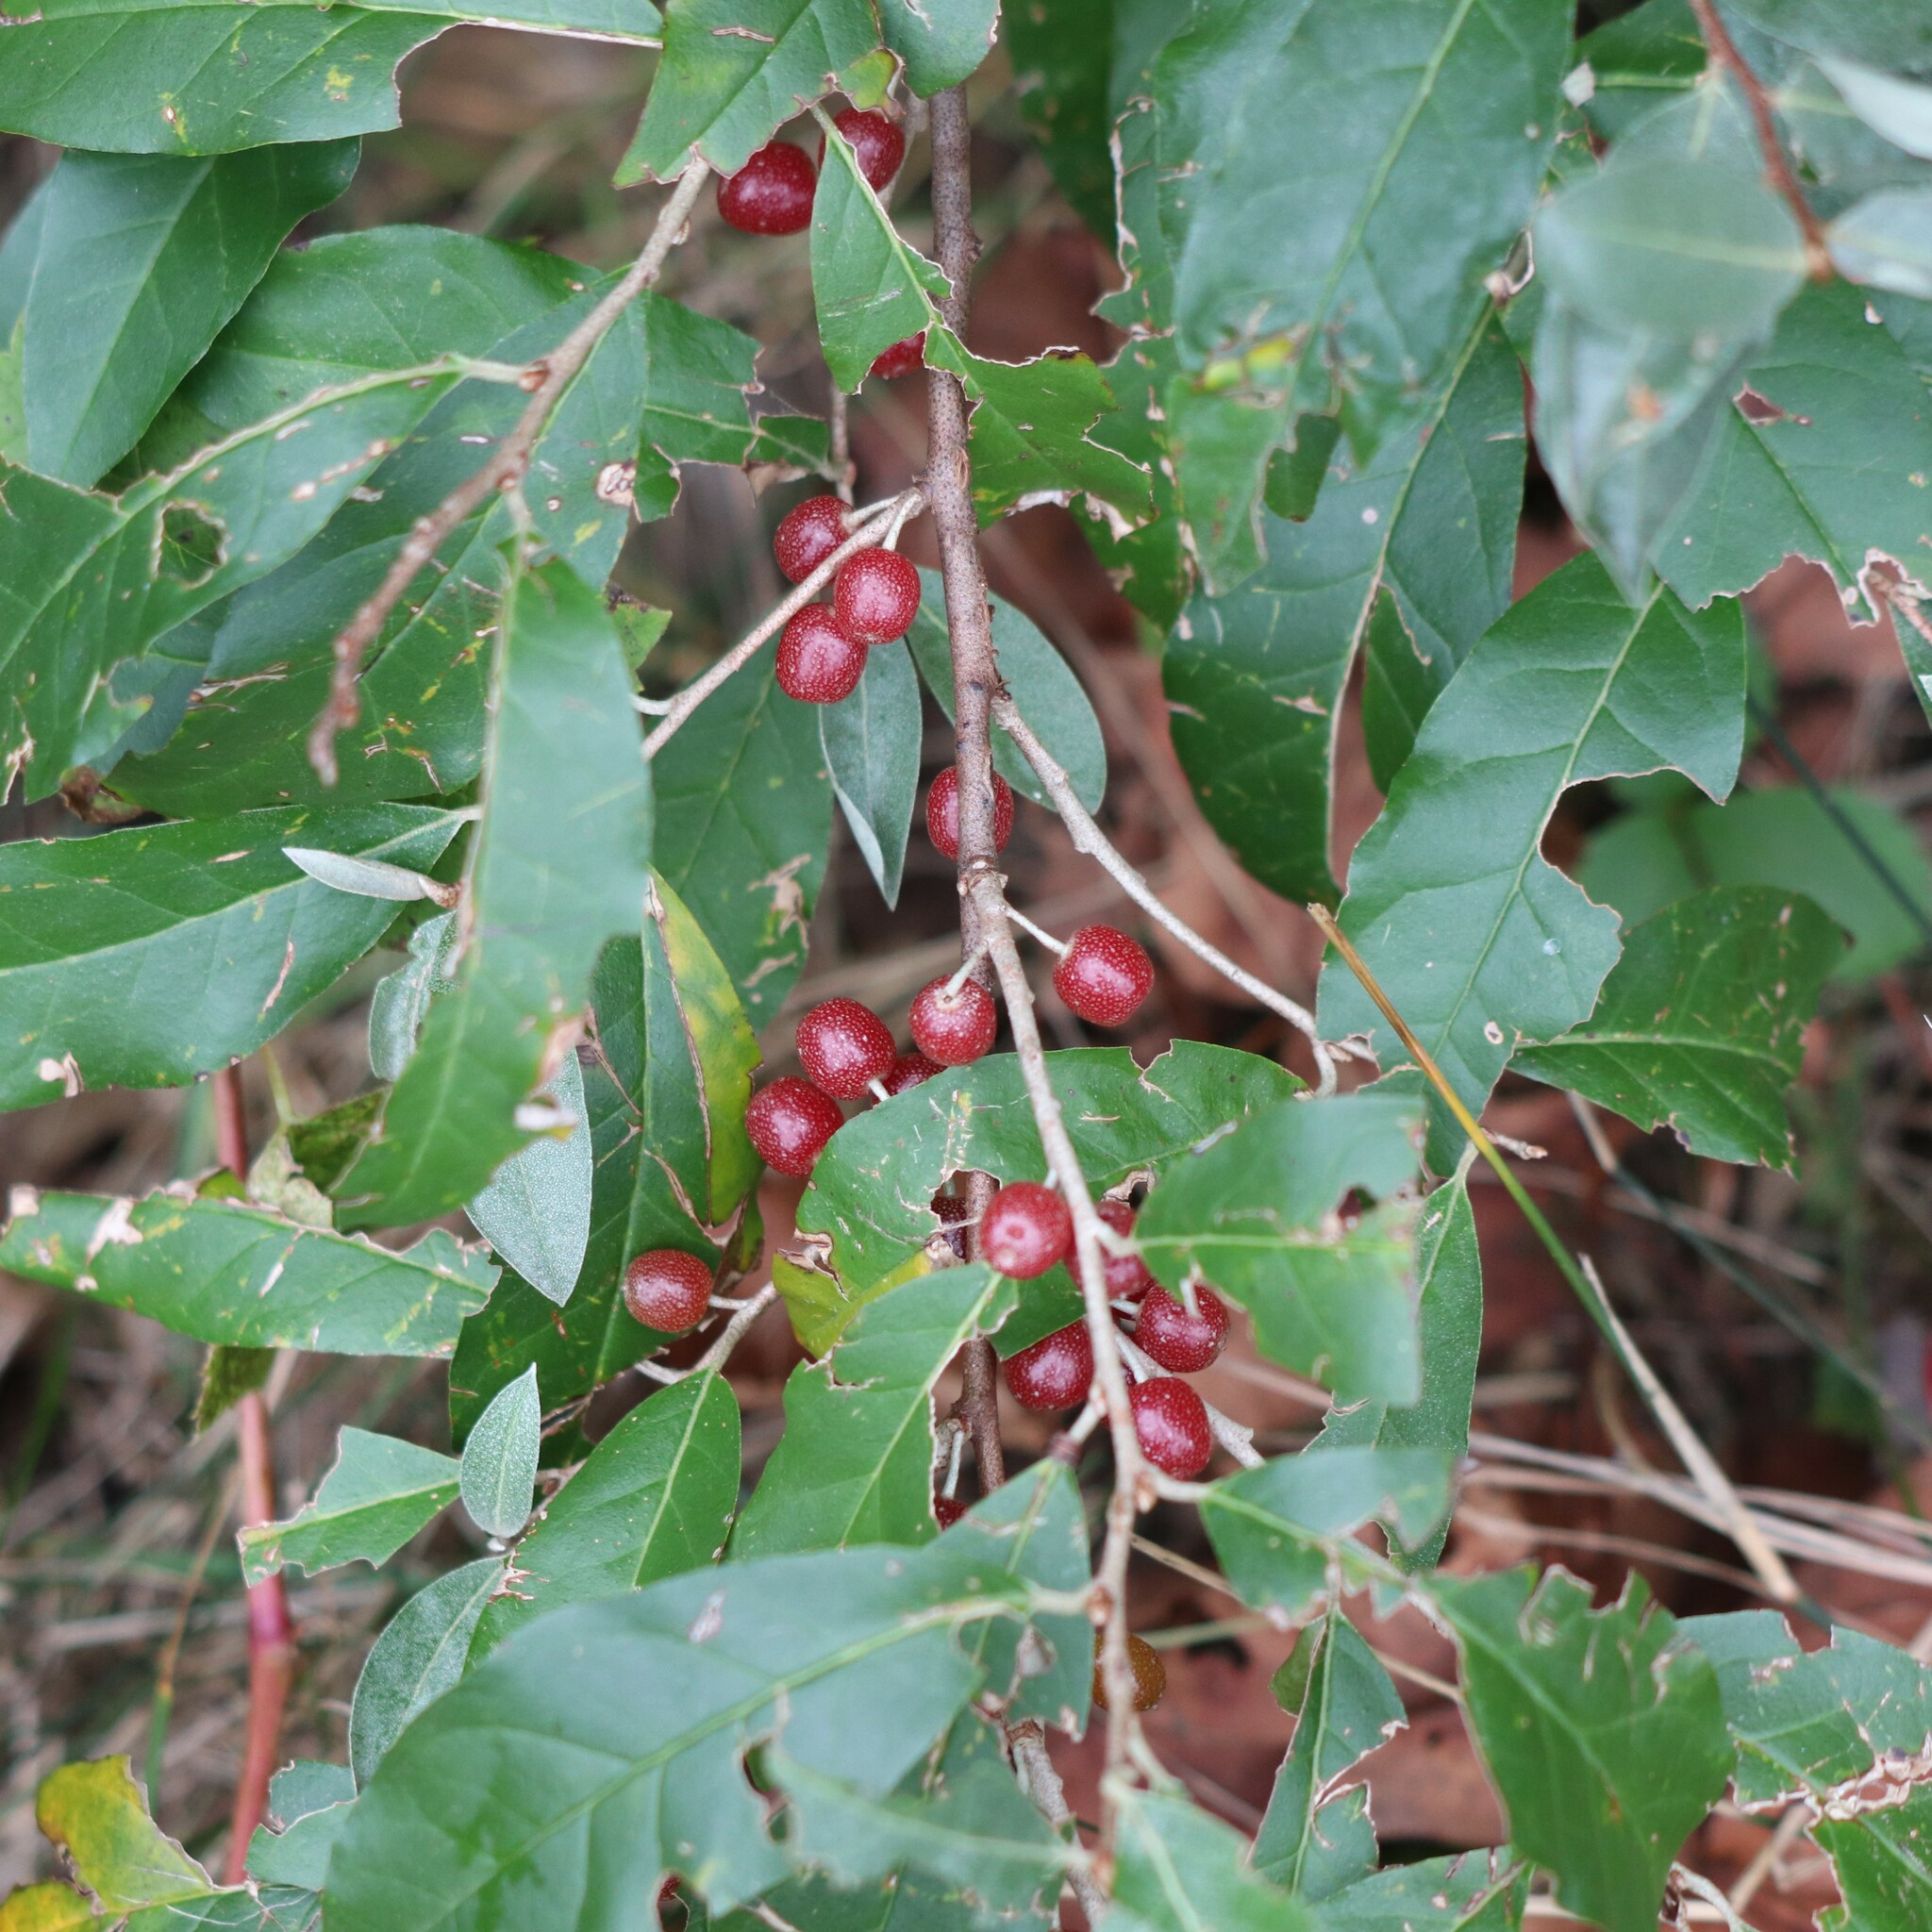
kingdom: Plantae
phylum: Tracheophyta
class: Magnoliopsida
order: Rosales
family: Elaeagnaceae
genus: Elaeagnus
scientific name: Elaeagnus umbellata
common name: Autumn olive
